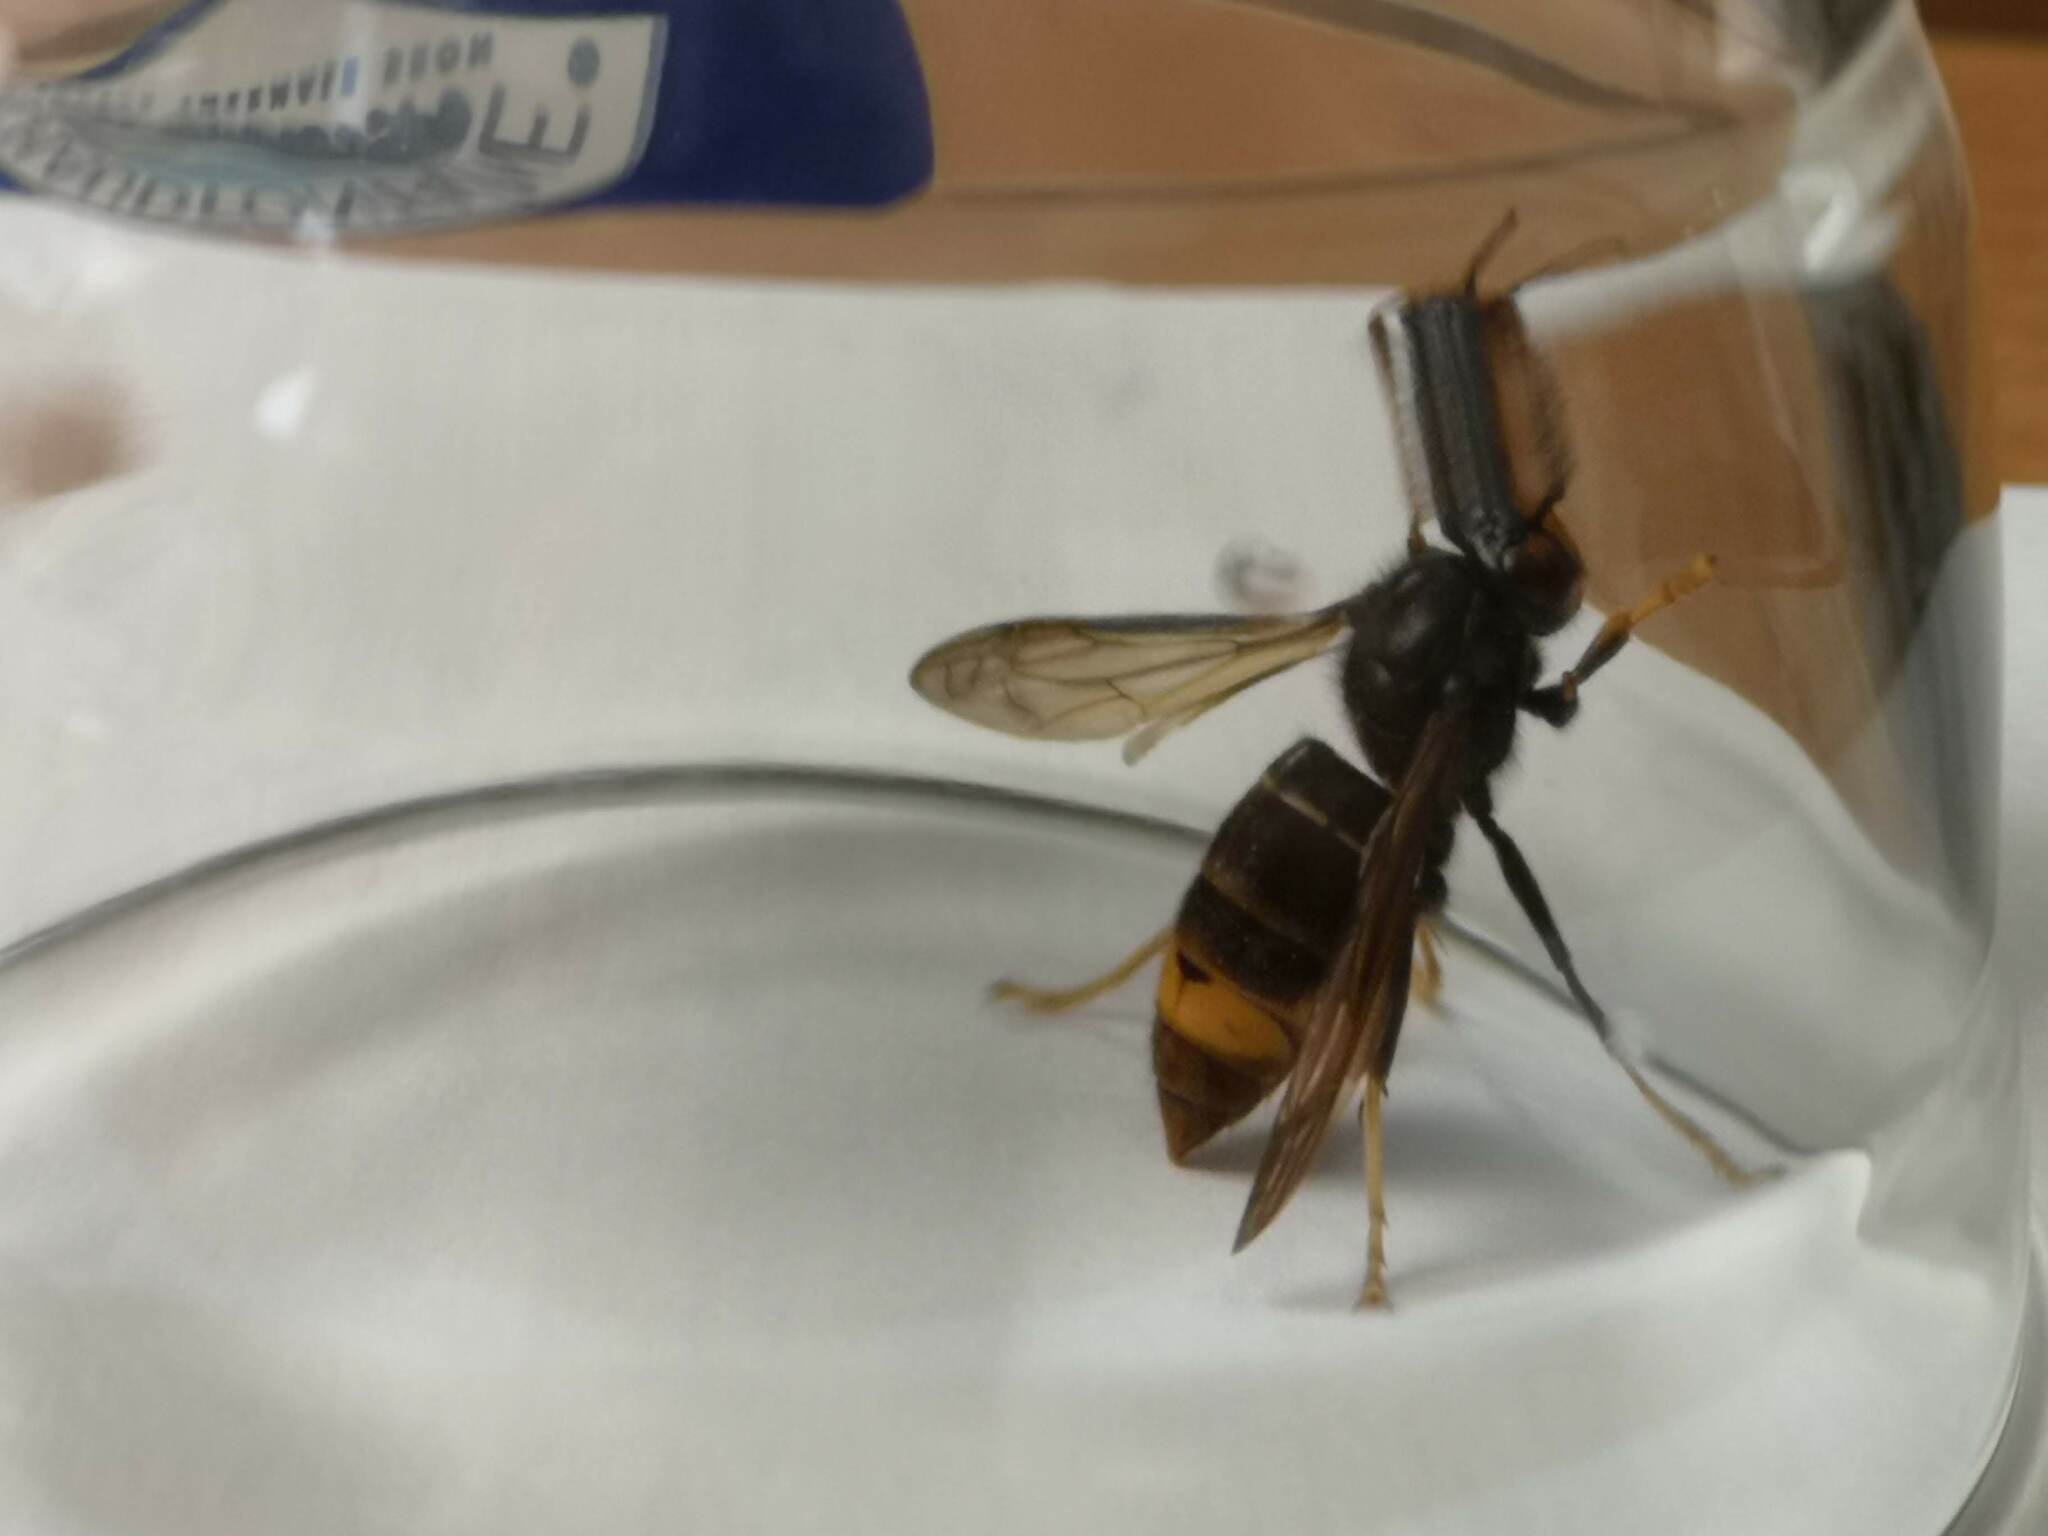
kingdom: Animalia
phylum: Arthropoda
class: Insecta
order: Hymenoptera
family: Vespidae
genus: Vespa
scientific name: Vespa velutina
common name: Asian hornet
